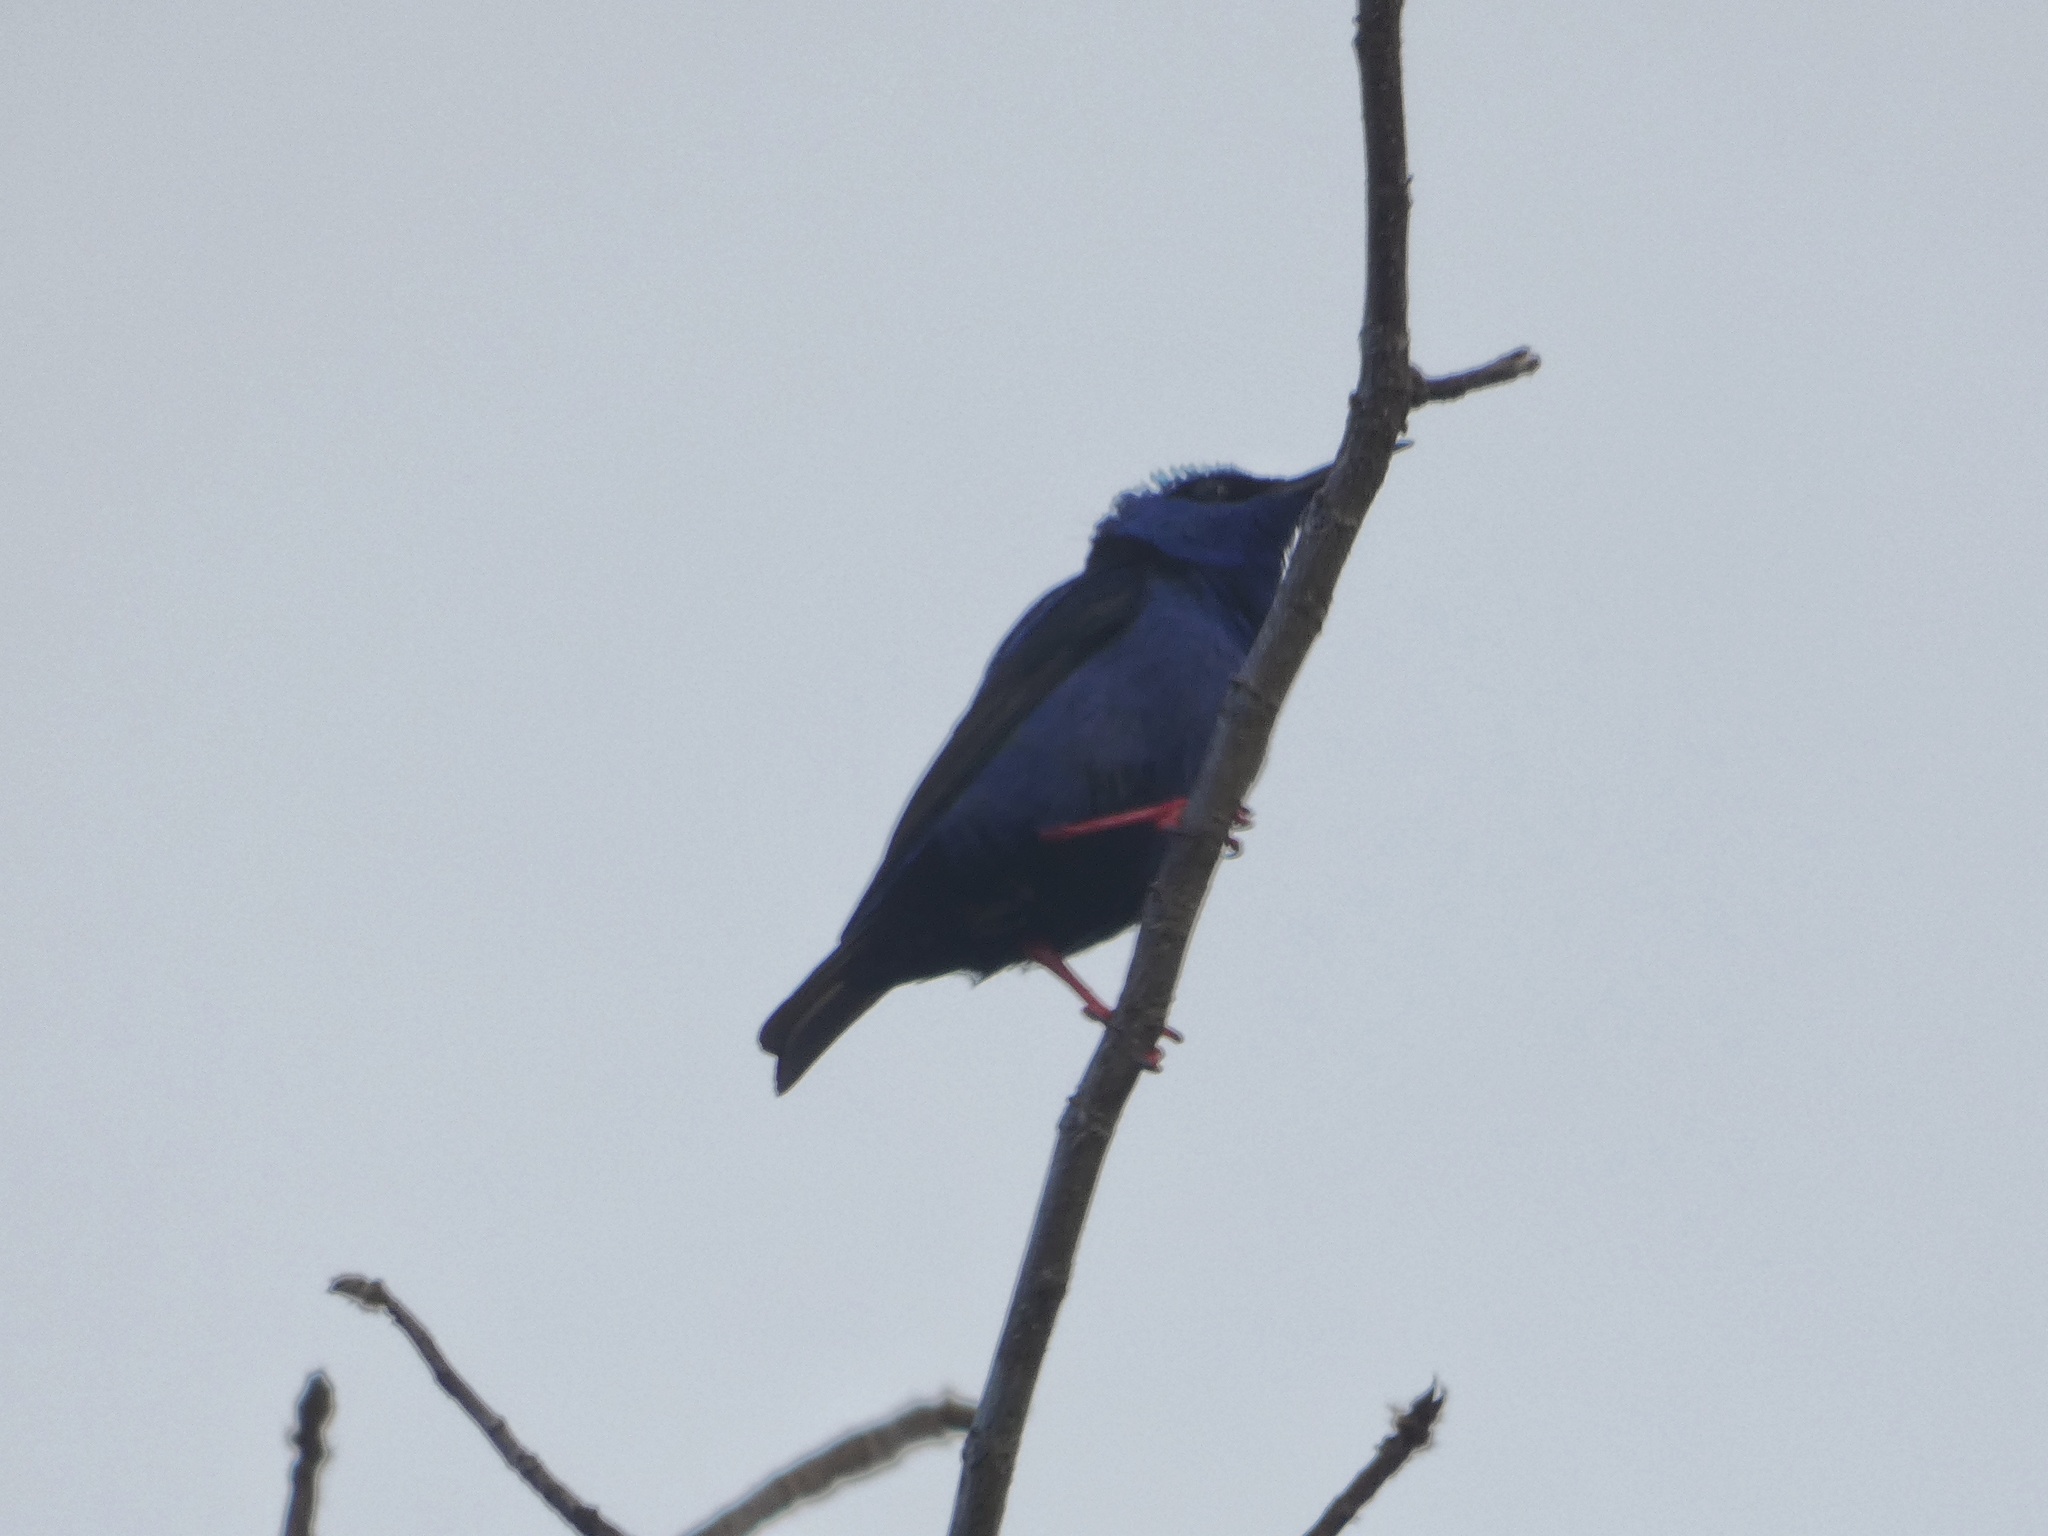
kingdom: Animalia
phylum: Chordata
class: Aves
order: Passeriformes
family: Thraupidae
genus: Cyanerpes
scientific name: Cyanerpes cyaneus
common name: Red-legged honeycreeper
